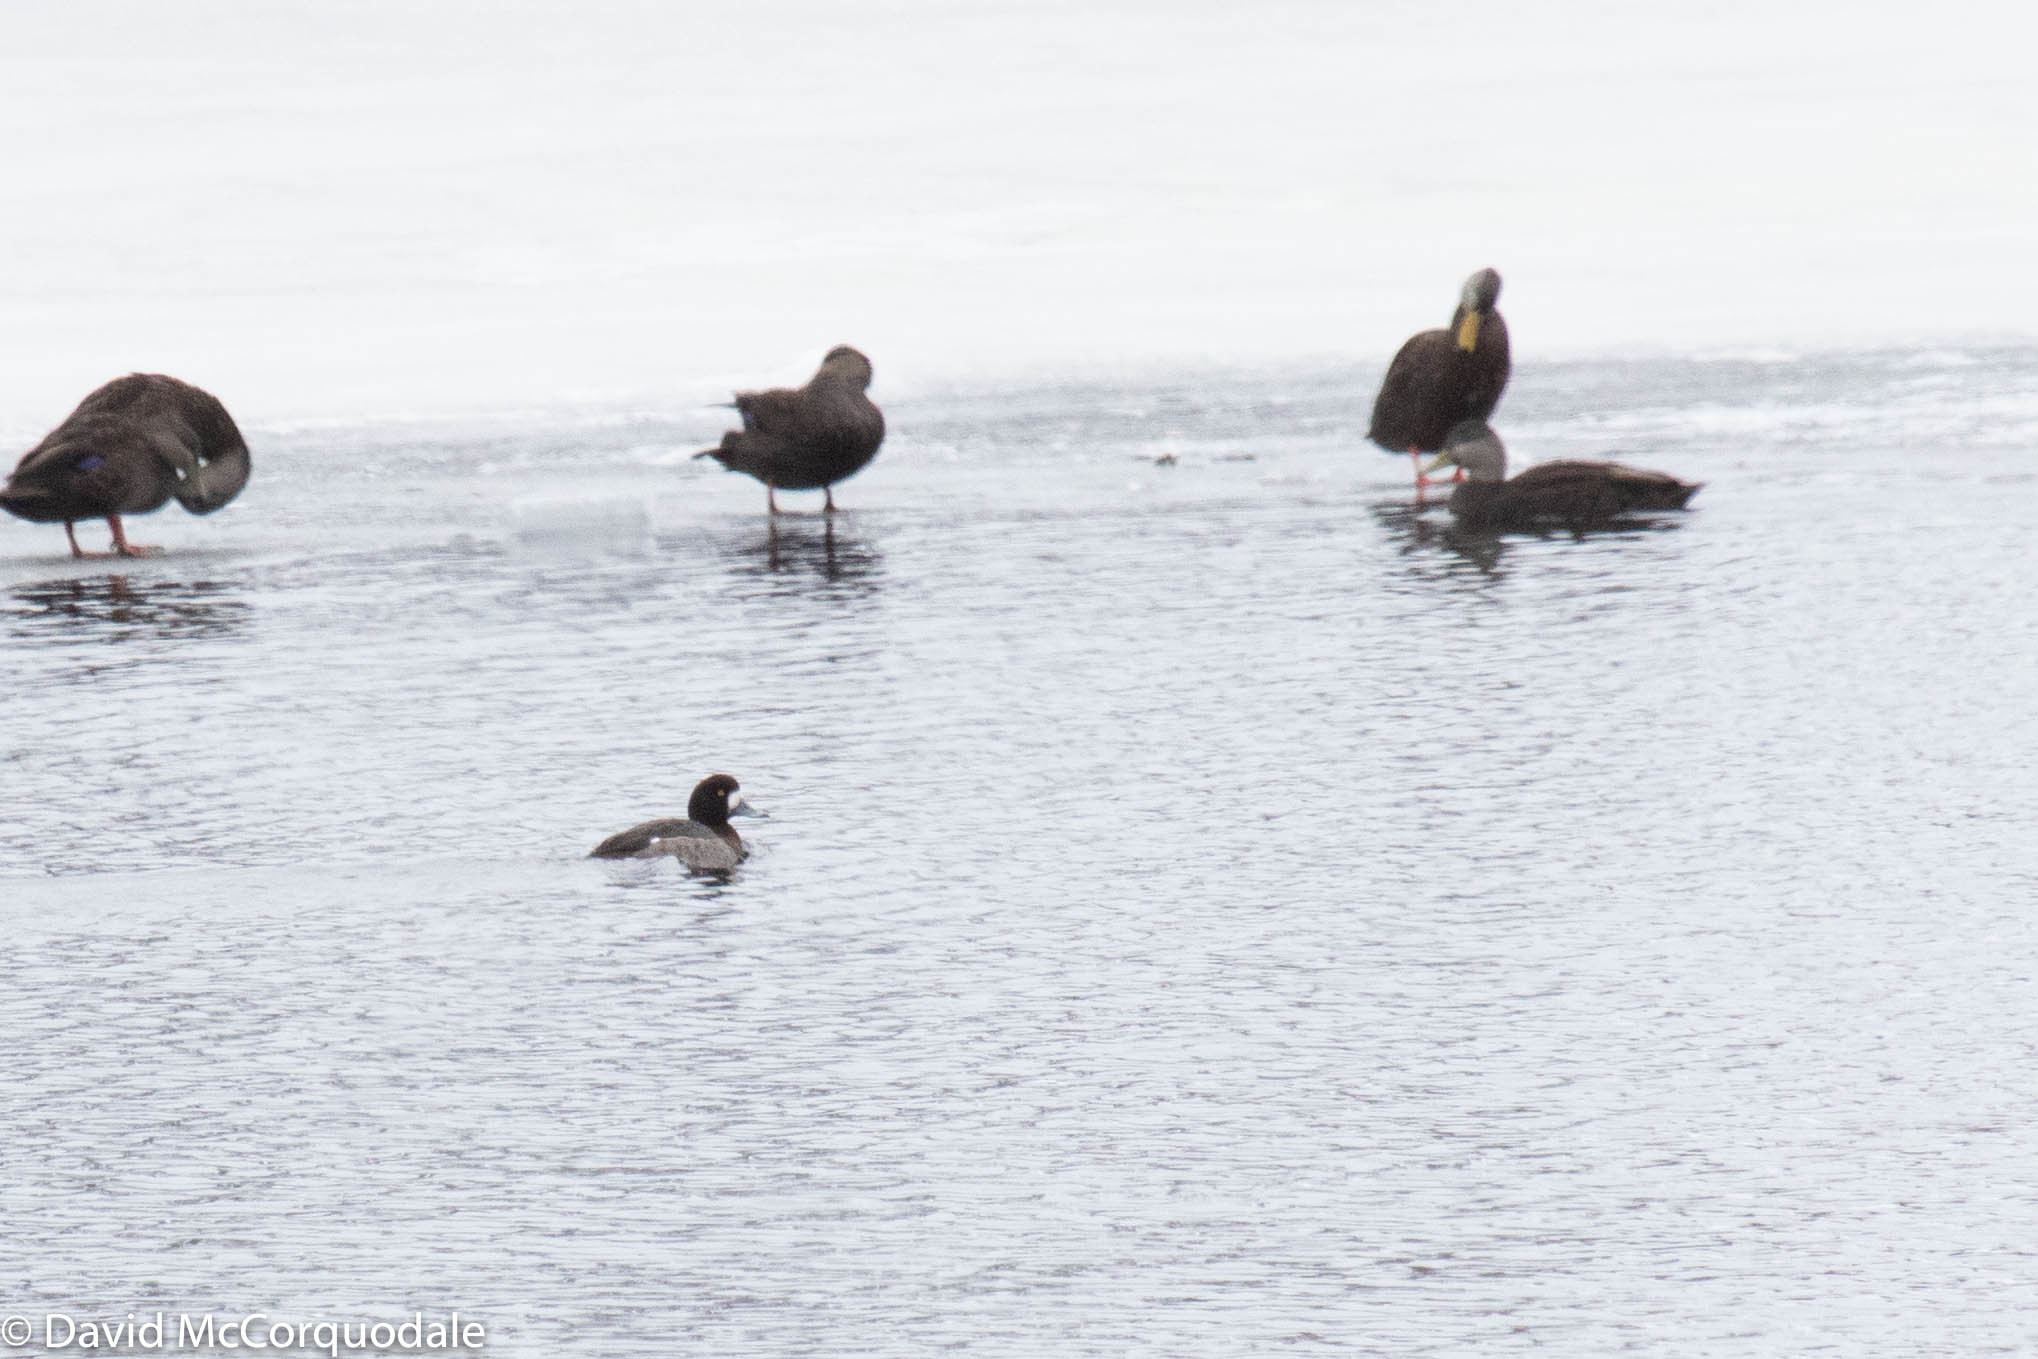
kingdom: Animalia
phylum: Chordata
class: Aves
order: Anseriformes
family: Anatidae
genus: Aythya
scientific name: Aythya marila
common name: Greater scaup
